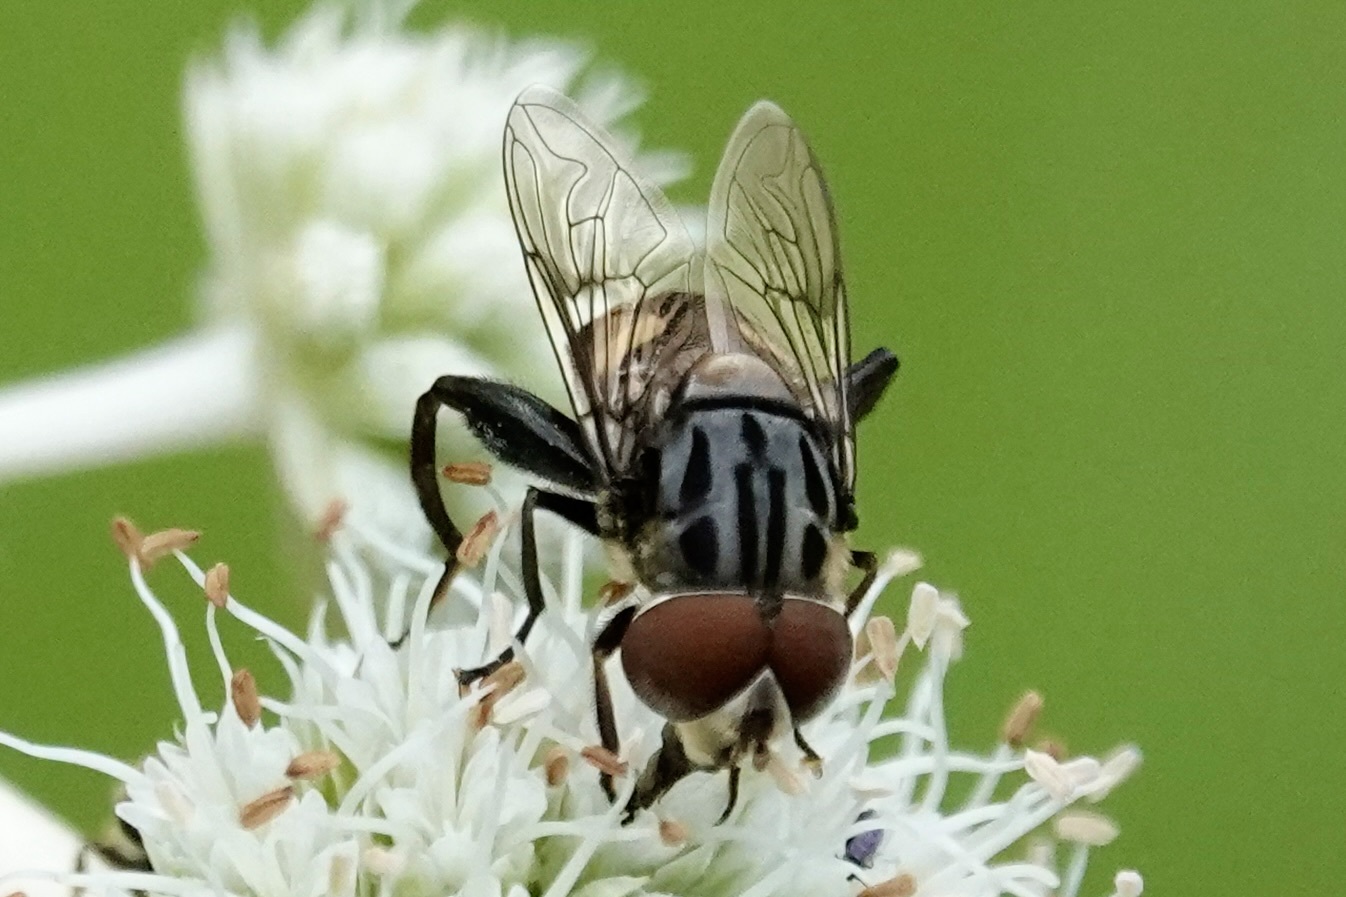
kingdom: Animalia
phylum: Arthropoda
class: Insecta
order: Diptera
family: Syrphidae
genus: Palpada
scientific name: Palpada furcata
